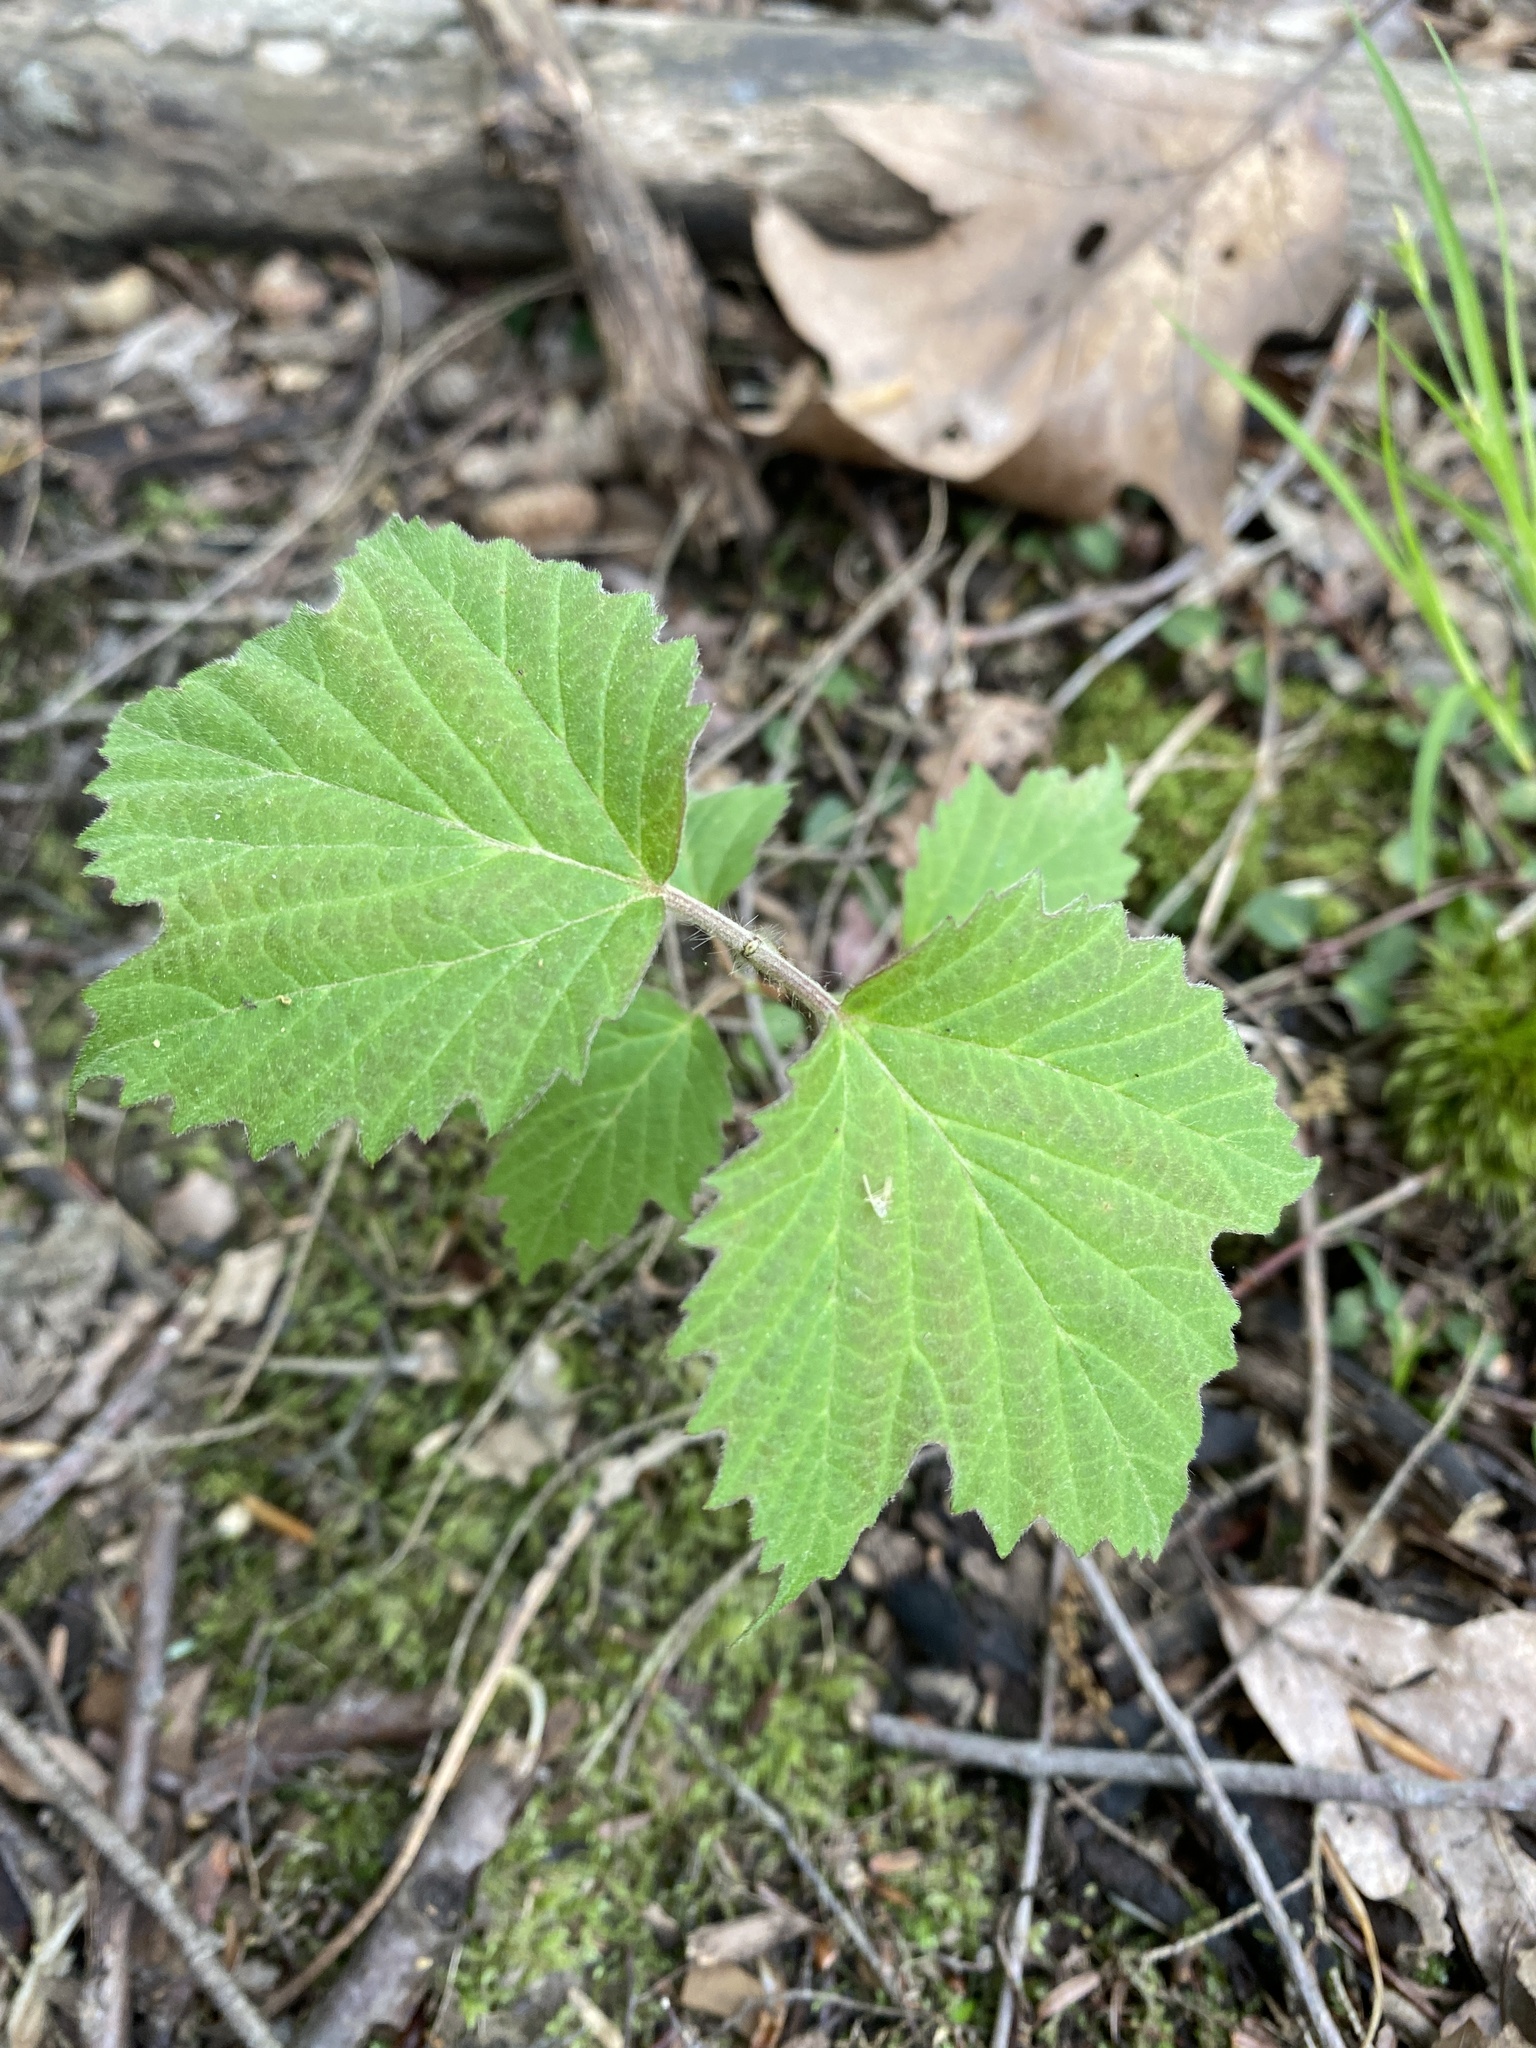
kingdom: Plantae
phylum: Tracheophyta
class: Magnoliopsida
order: Dipsacales
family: Viburnaceae
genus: Viburnum
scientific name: Viburnum acerifolium
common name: Dockmackie
